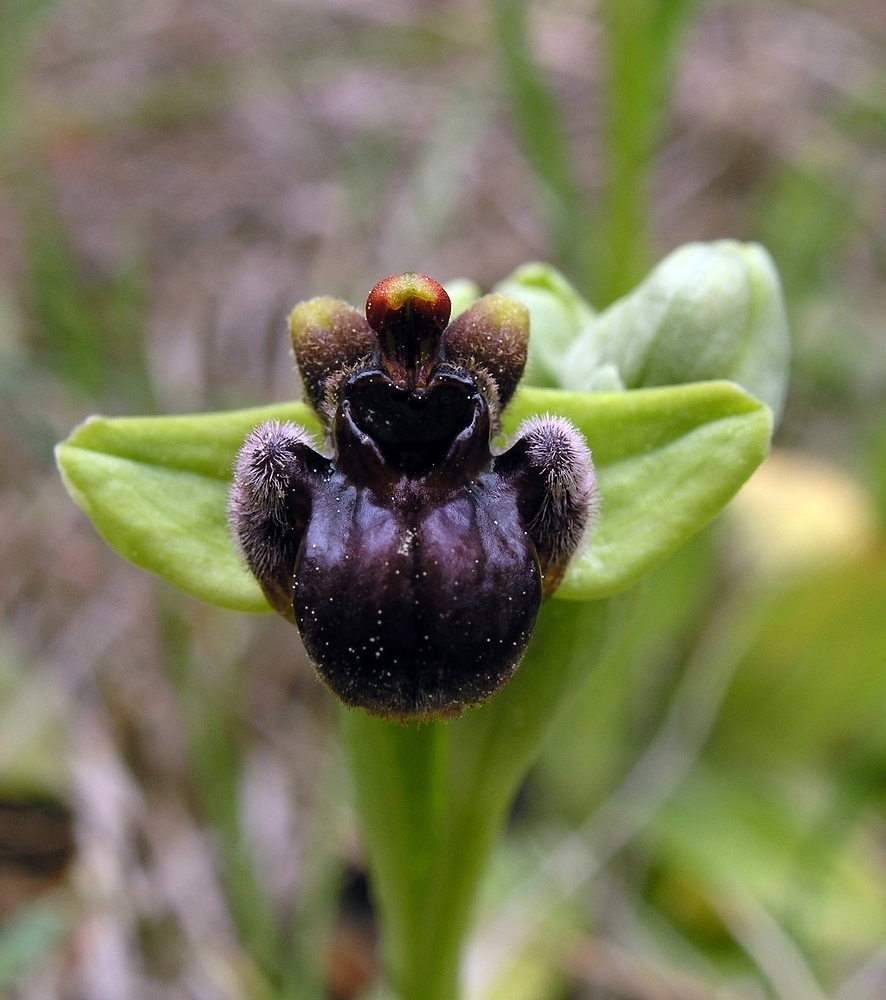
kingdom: Plantae
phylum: Tracheophyta
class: Liliopsida
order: Asparagales
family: Orchidaceae
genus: Ophrys
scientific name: Ophrys bombyliflora
